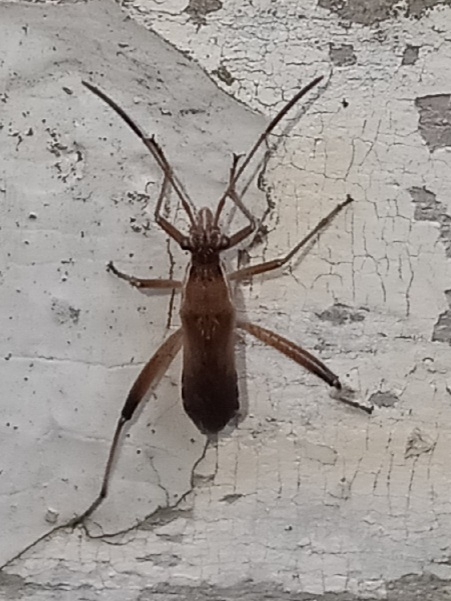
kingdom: Animalia
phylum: Arthropoda
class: Insecta
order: Hemiptera
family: Alydidae
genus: Alydus
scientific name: Alydus pilosulus
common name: Broad-headed bug
